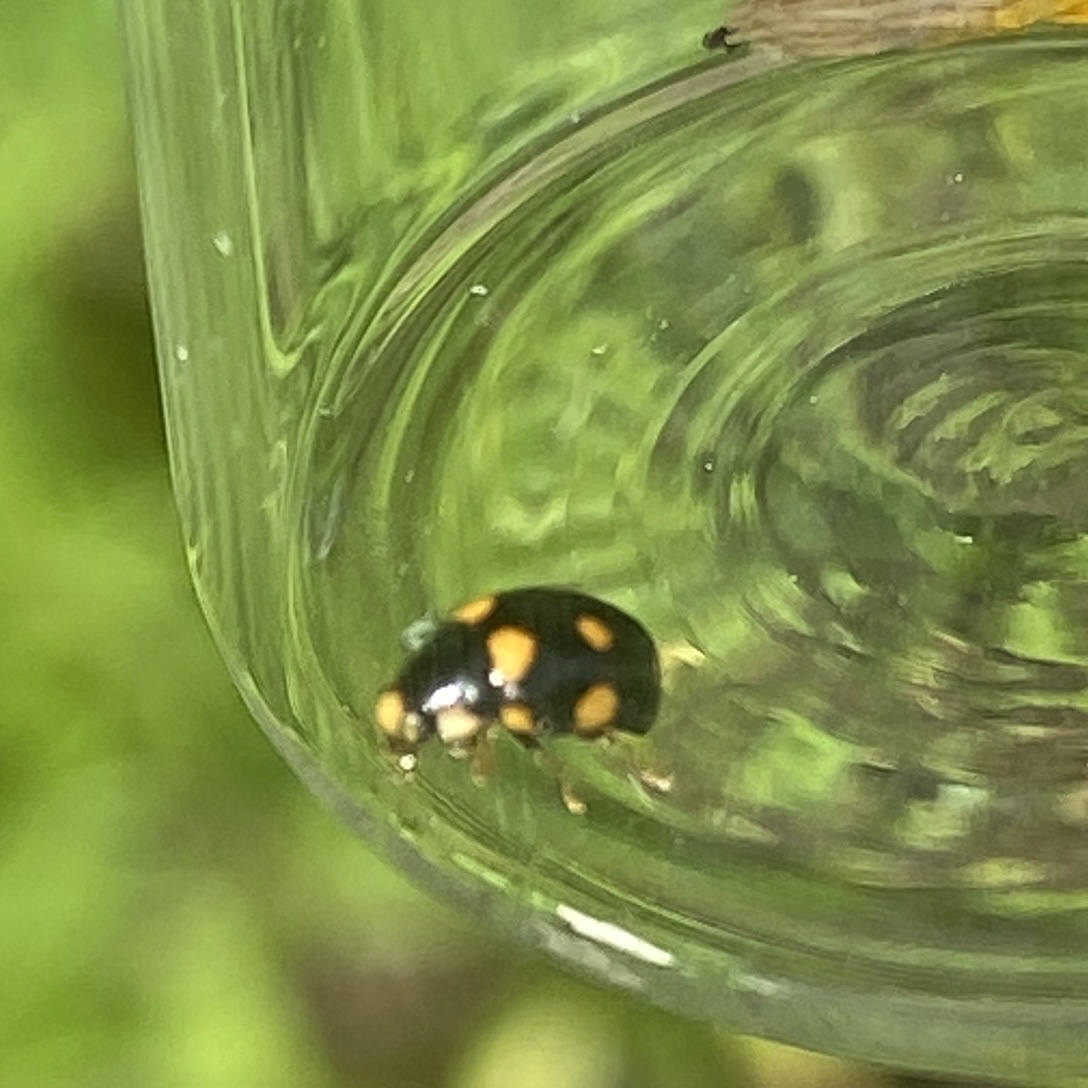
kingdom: Animalia
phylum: Arthropoda
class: Insecta
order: Coleoptera
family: Coccinellidae
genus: Brachiacantha
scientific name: Brachiacantha ursina
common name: Ursine spurleg lady beetle
